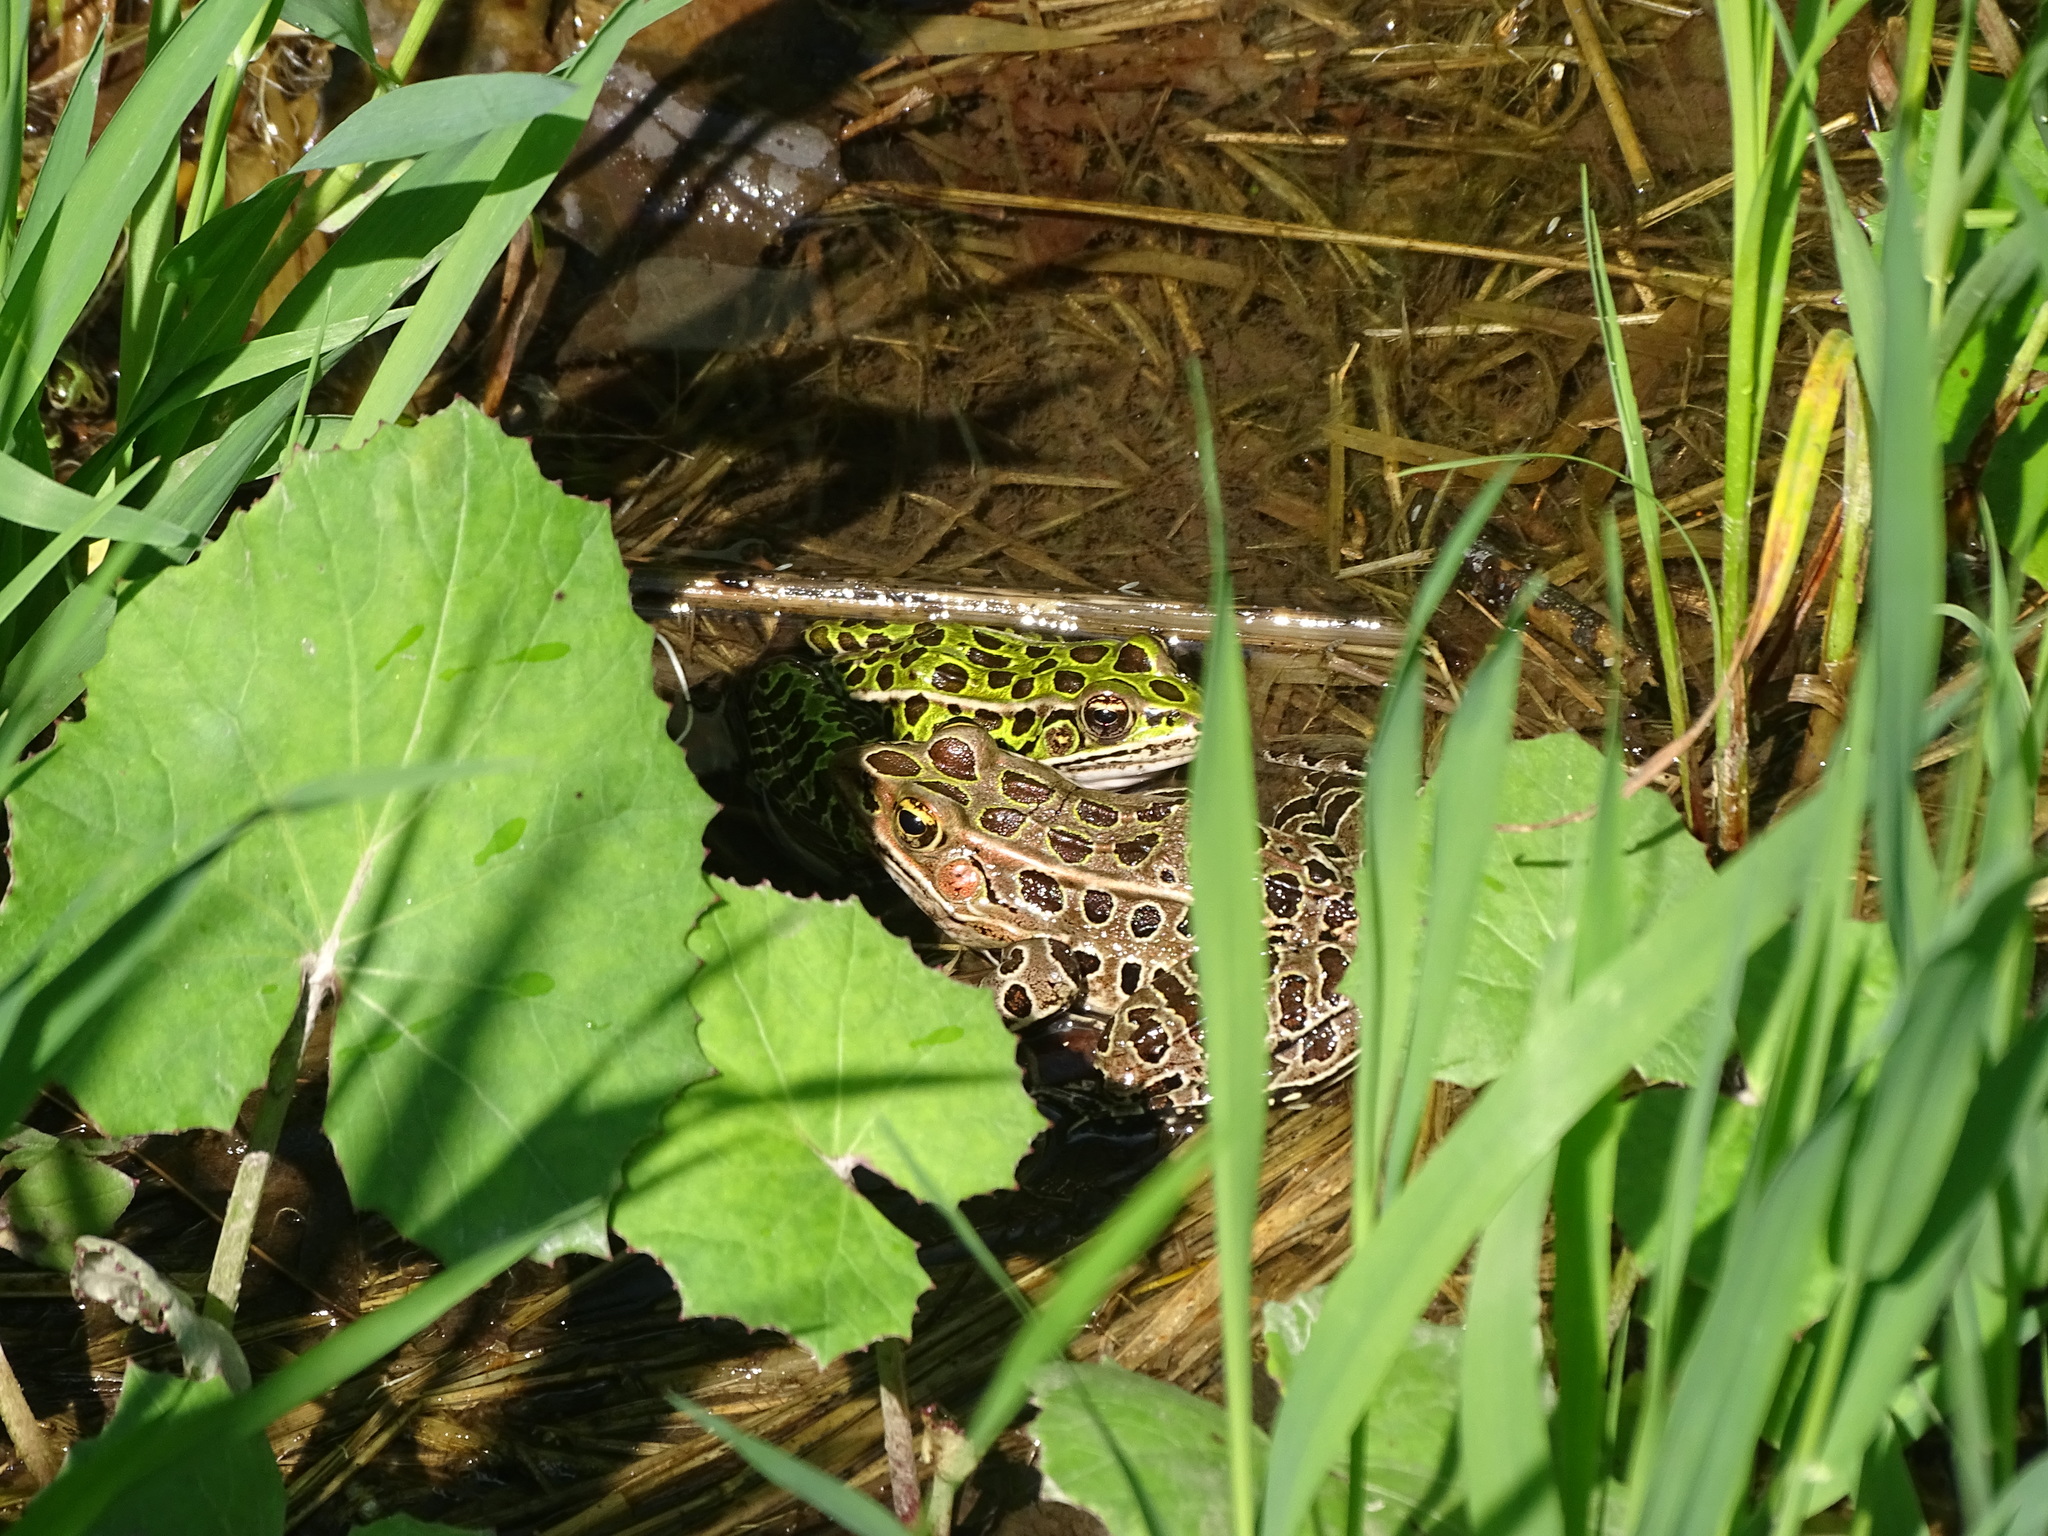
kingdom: Animalia
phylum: Chordata
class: Amphibia
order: Anura
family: Ranidae
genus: Lithobates
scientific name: Lithobates pipiens
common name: Northern leopard frog
